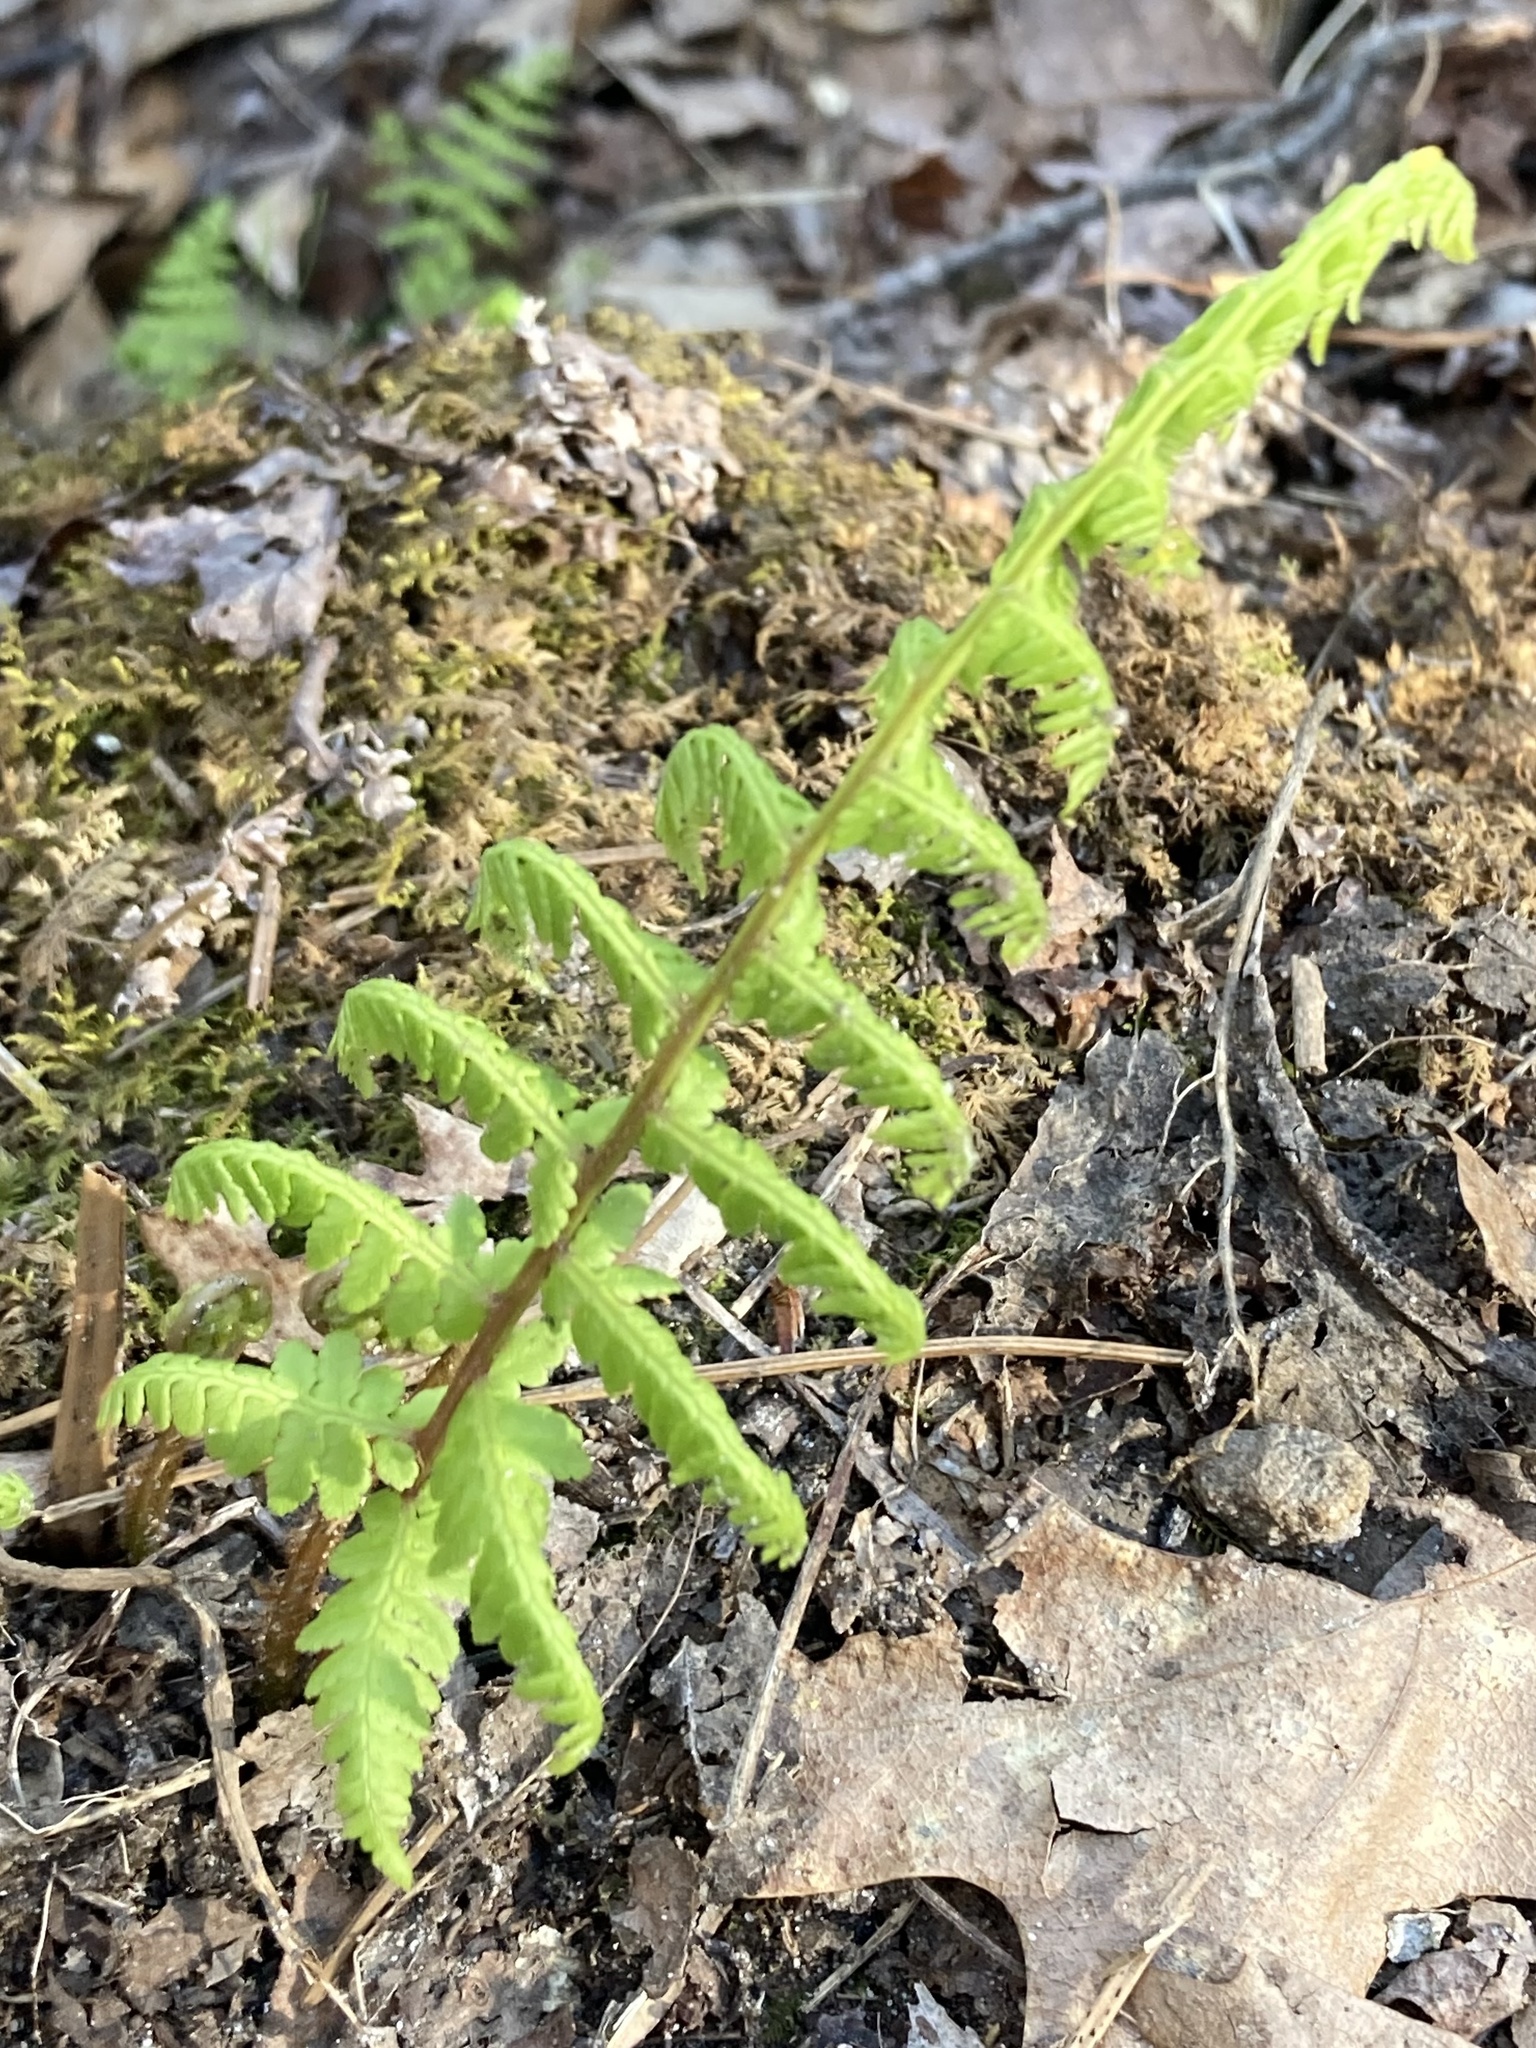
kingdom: Plantae
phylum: Tracheophyta
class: Polypodiopsida
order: Polypodiales
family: Athyriaceae
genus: Athyrium
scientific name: Athyrium asplenioides
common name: Southern lady fern
